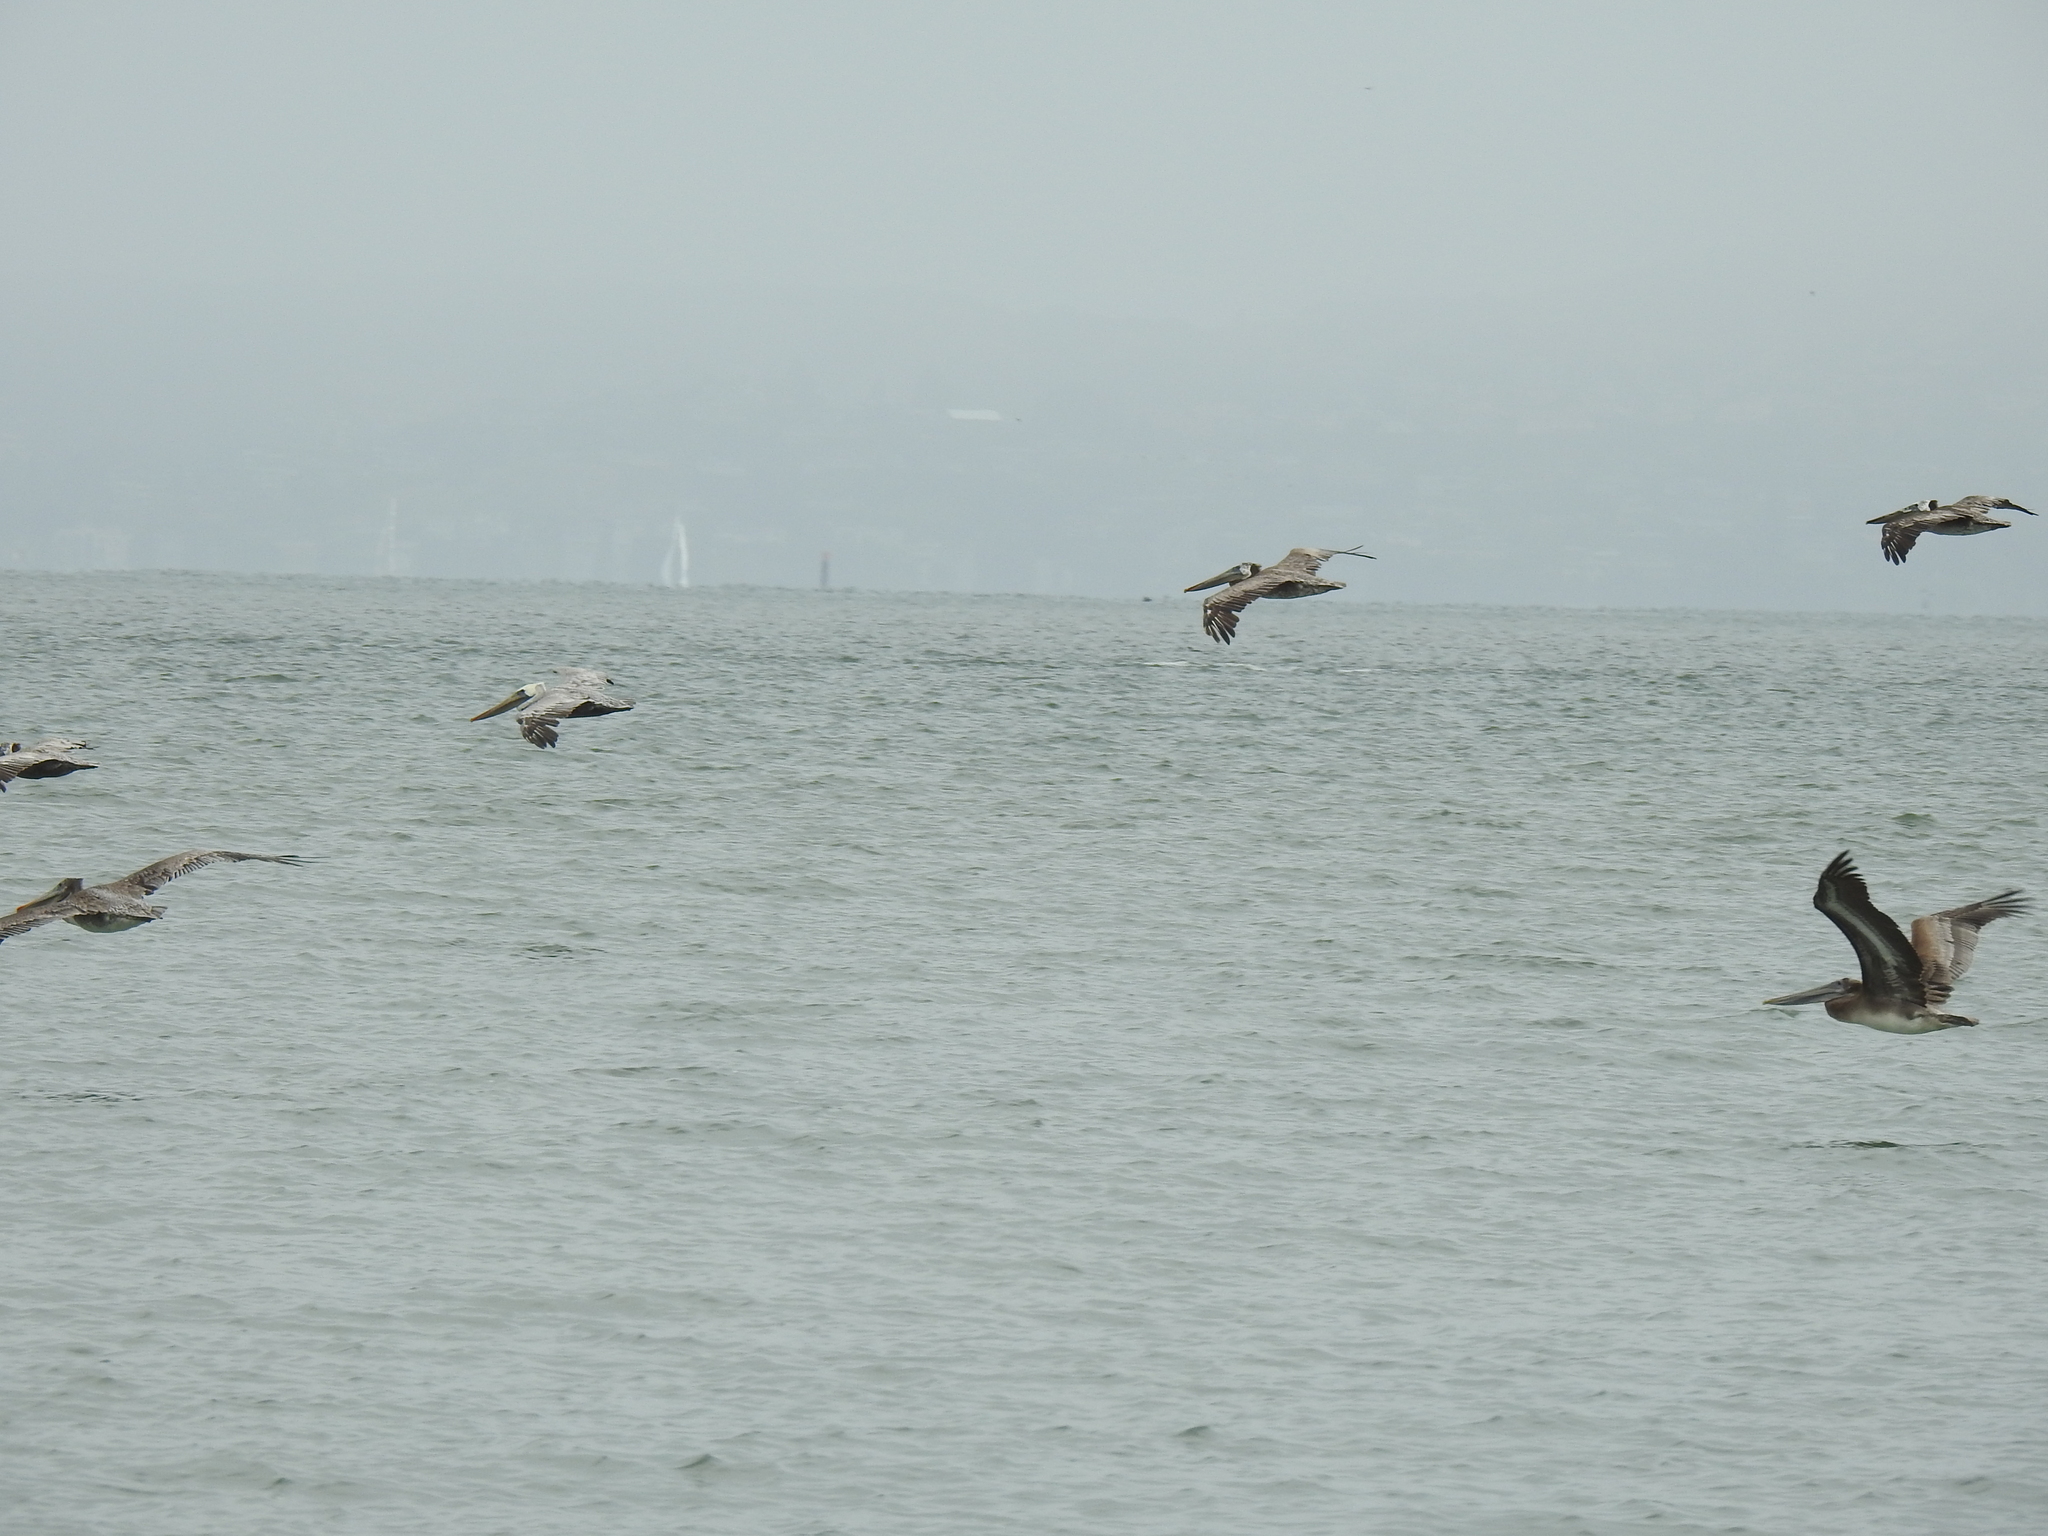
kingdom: Animalia
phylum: Chordata
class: Aves
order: Pelecaniformes
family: Pelecanidae
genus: Pelecanus
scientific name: Pelecanus occidentalis
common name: Brown pelican
